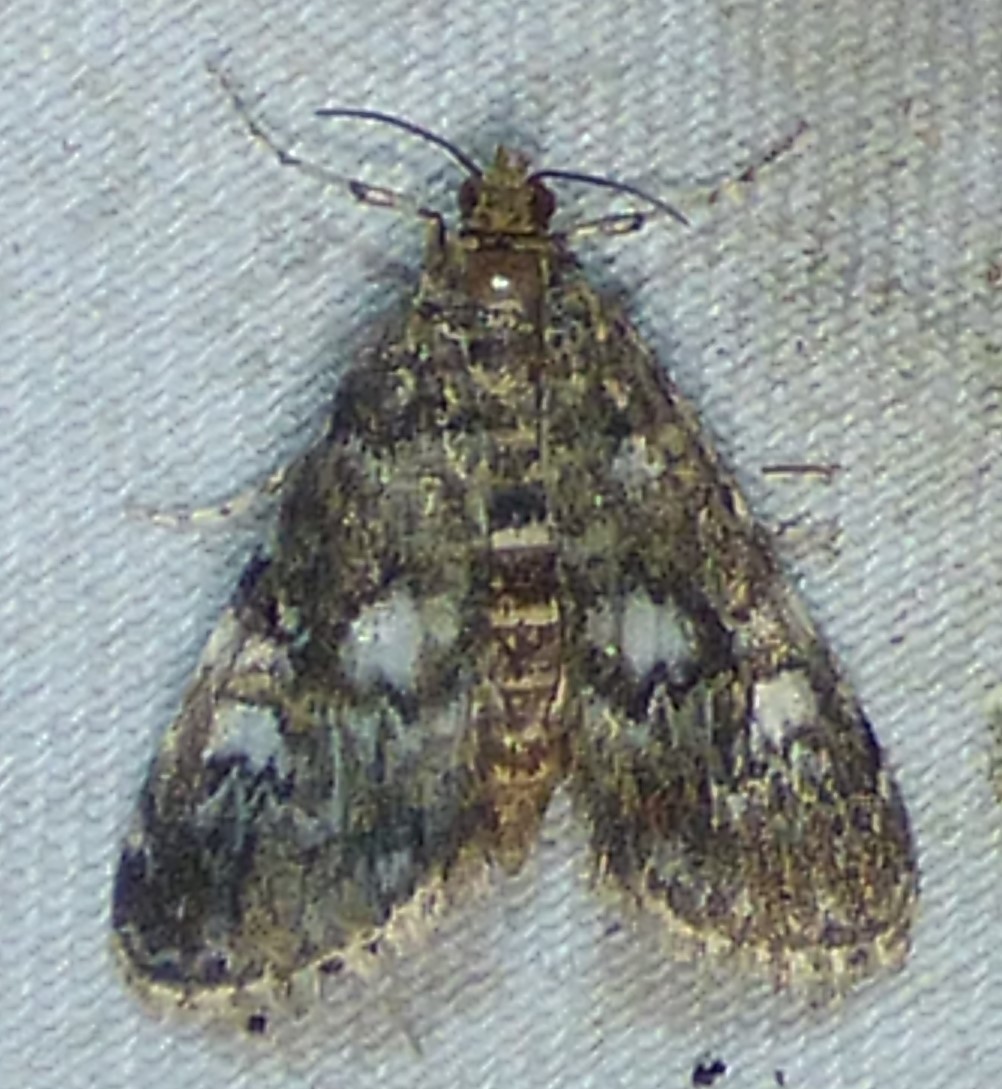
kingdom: Animalia
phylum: Arthropoda
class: Insecta
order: Lepidoptera
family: Crambidae
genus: Elophila
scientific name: Elophila obliteralis
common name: Waterlily leafcutter moth
